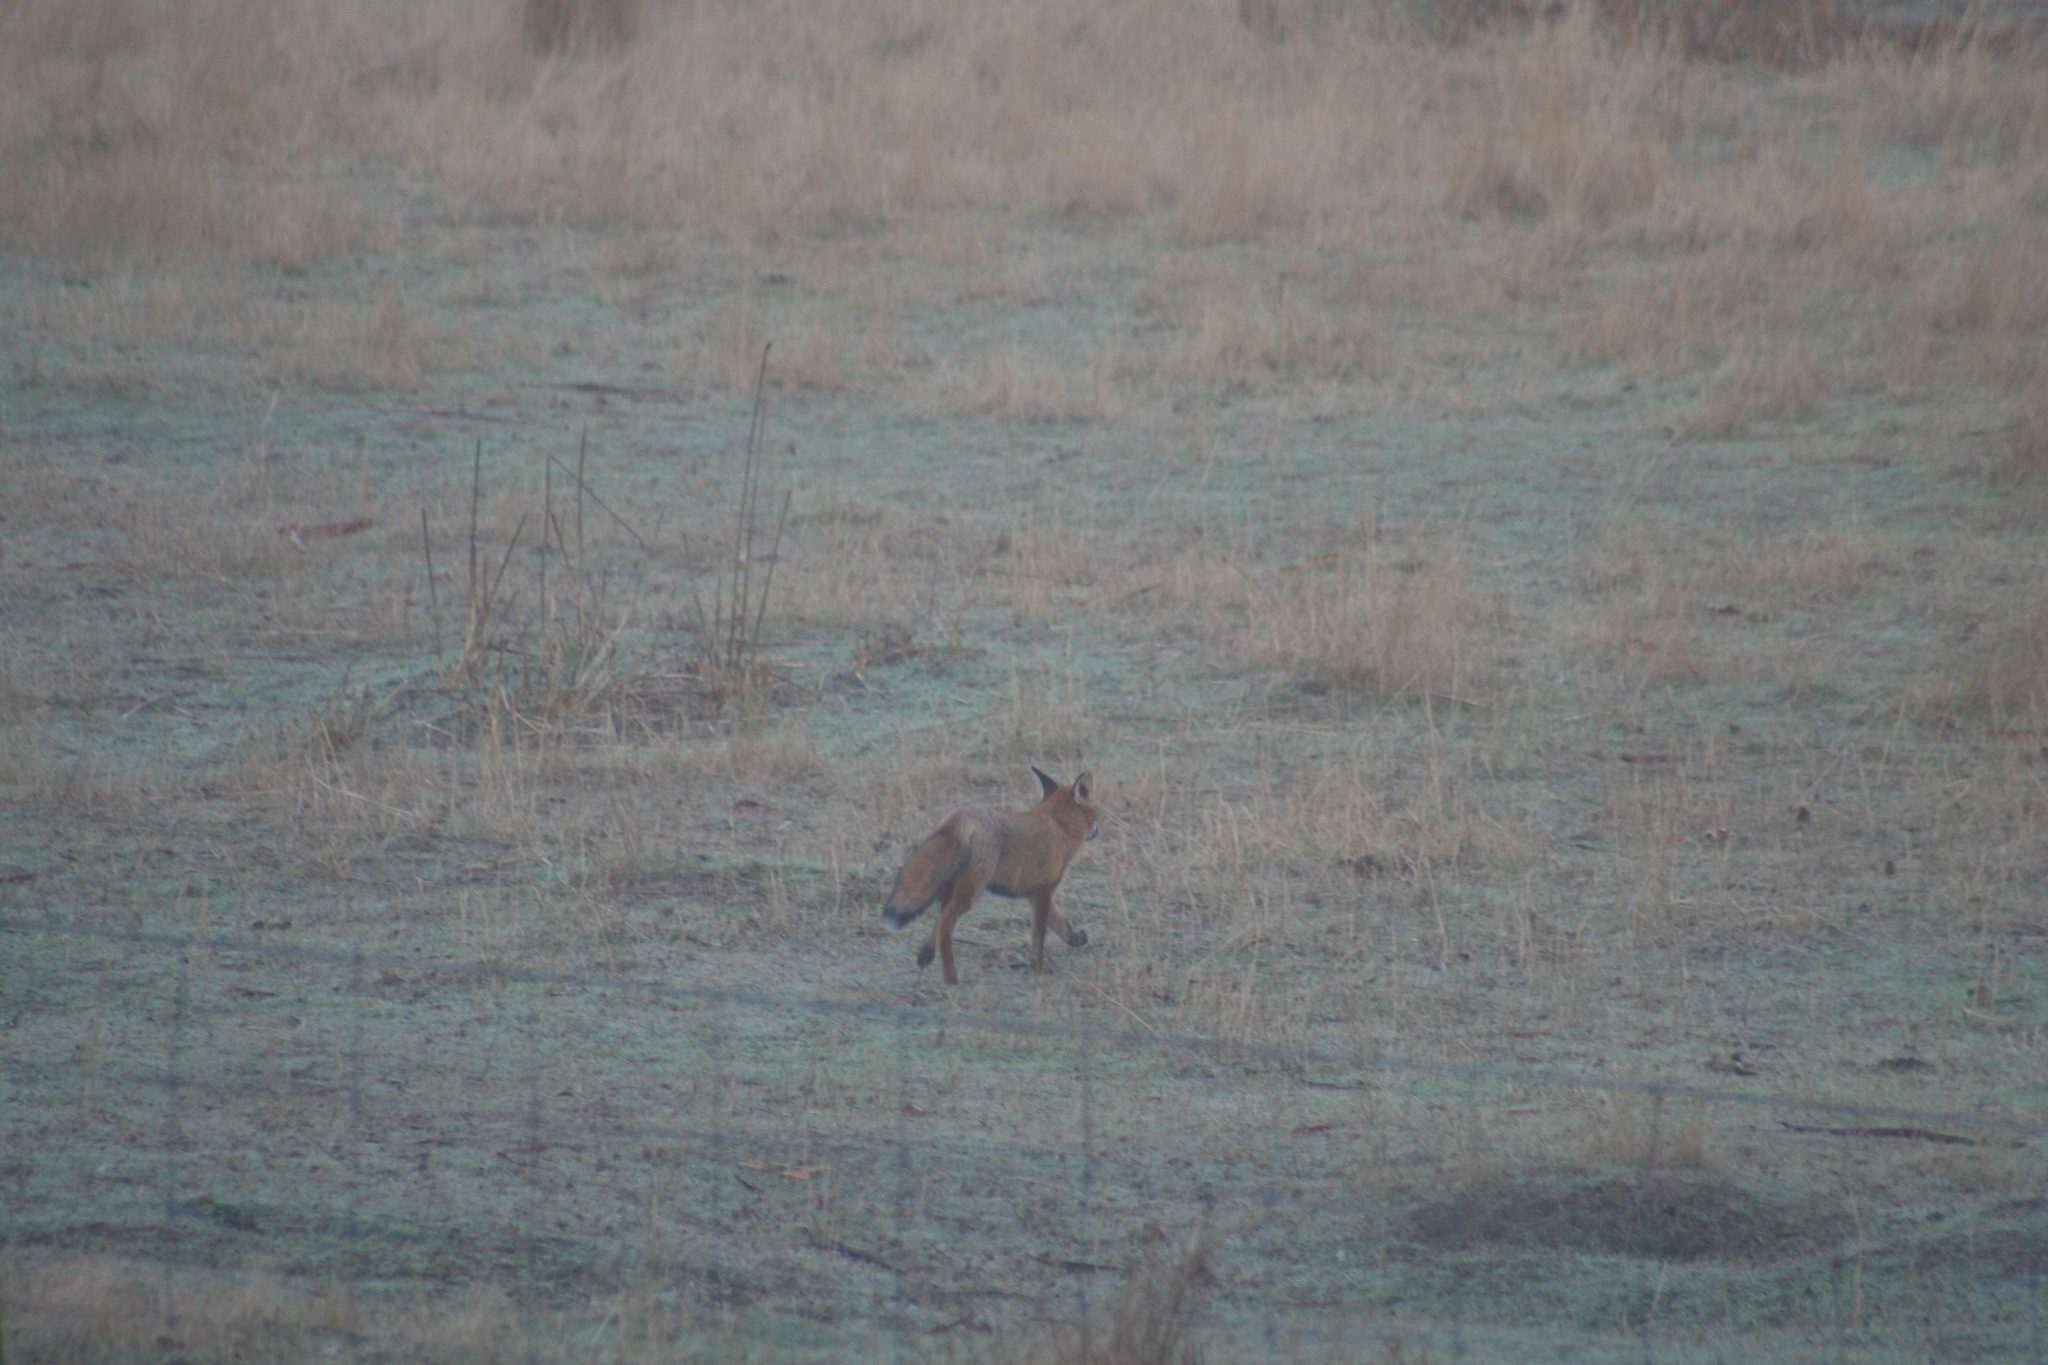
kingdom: Animalia
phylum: Chordata
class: Mammalia
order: Carnivora
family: Canidae
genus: Vulpes
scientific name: Vulpes vulpes
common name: Red fox
